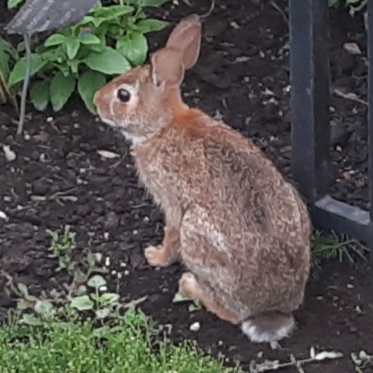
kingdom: Animalia
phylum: Chordata
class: Mammalia
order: Lagomorpha
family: Leporidae
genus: Sylvilagus
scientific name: Sylvilagus floridanus
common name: Eastern cottontail
